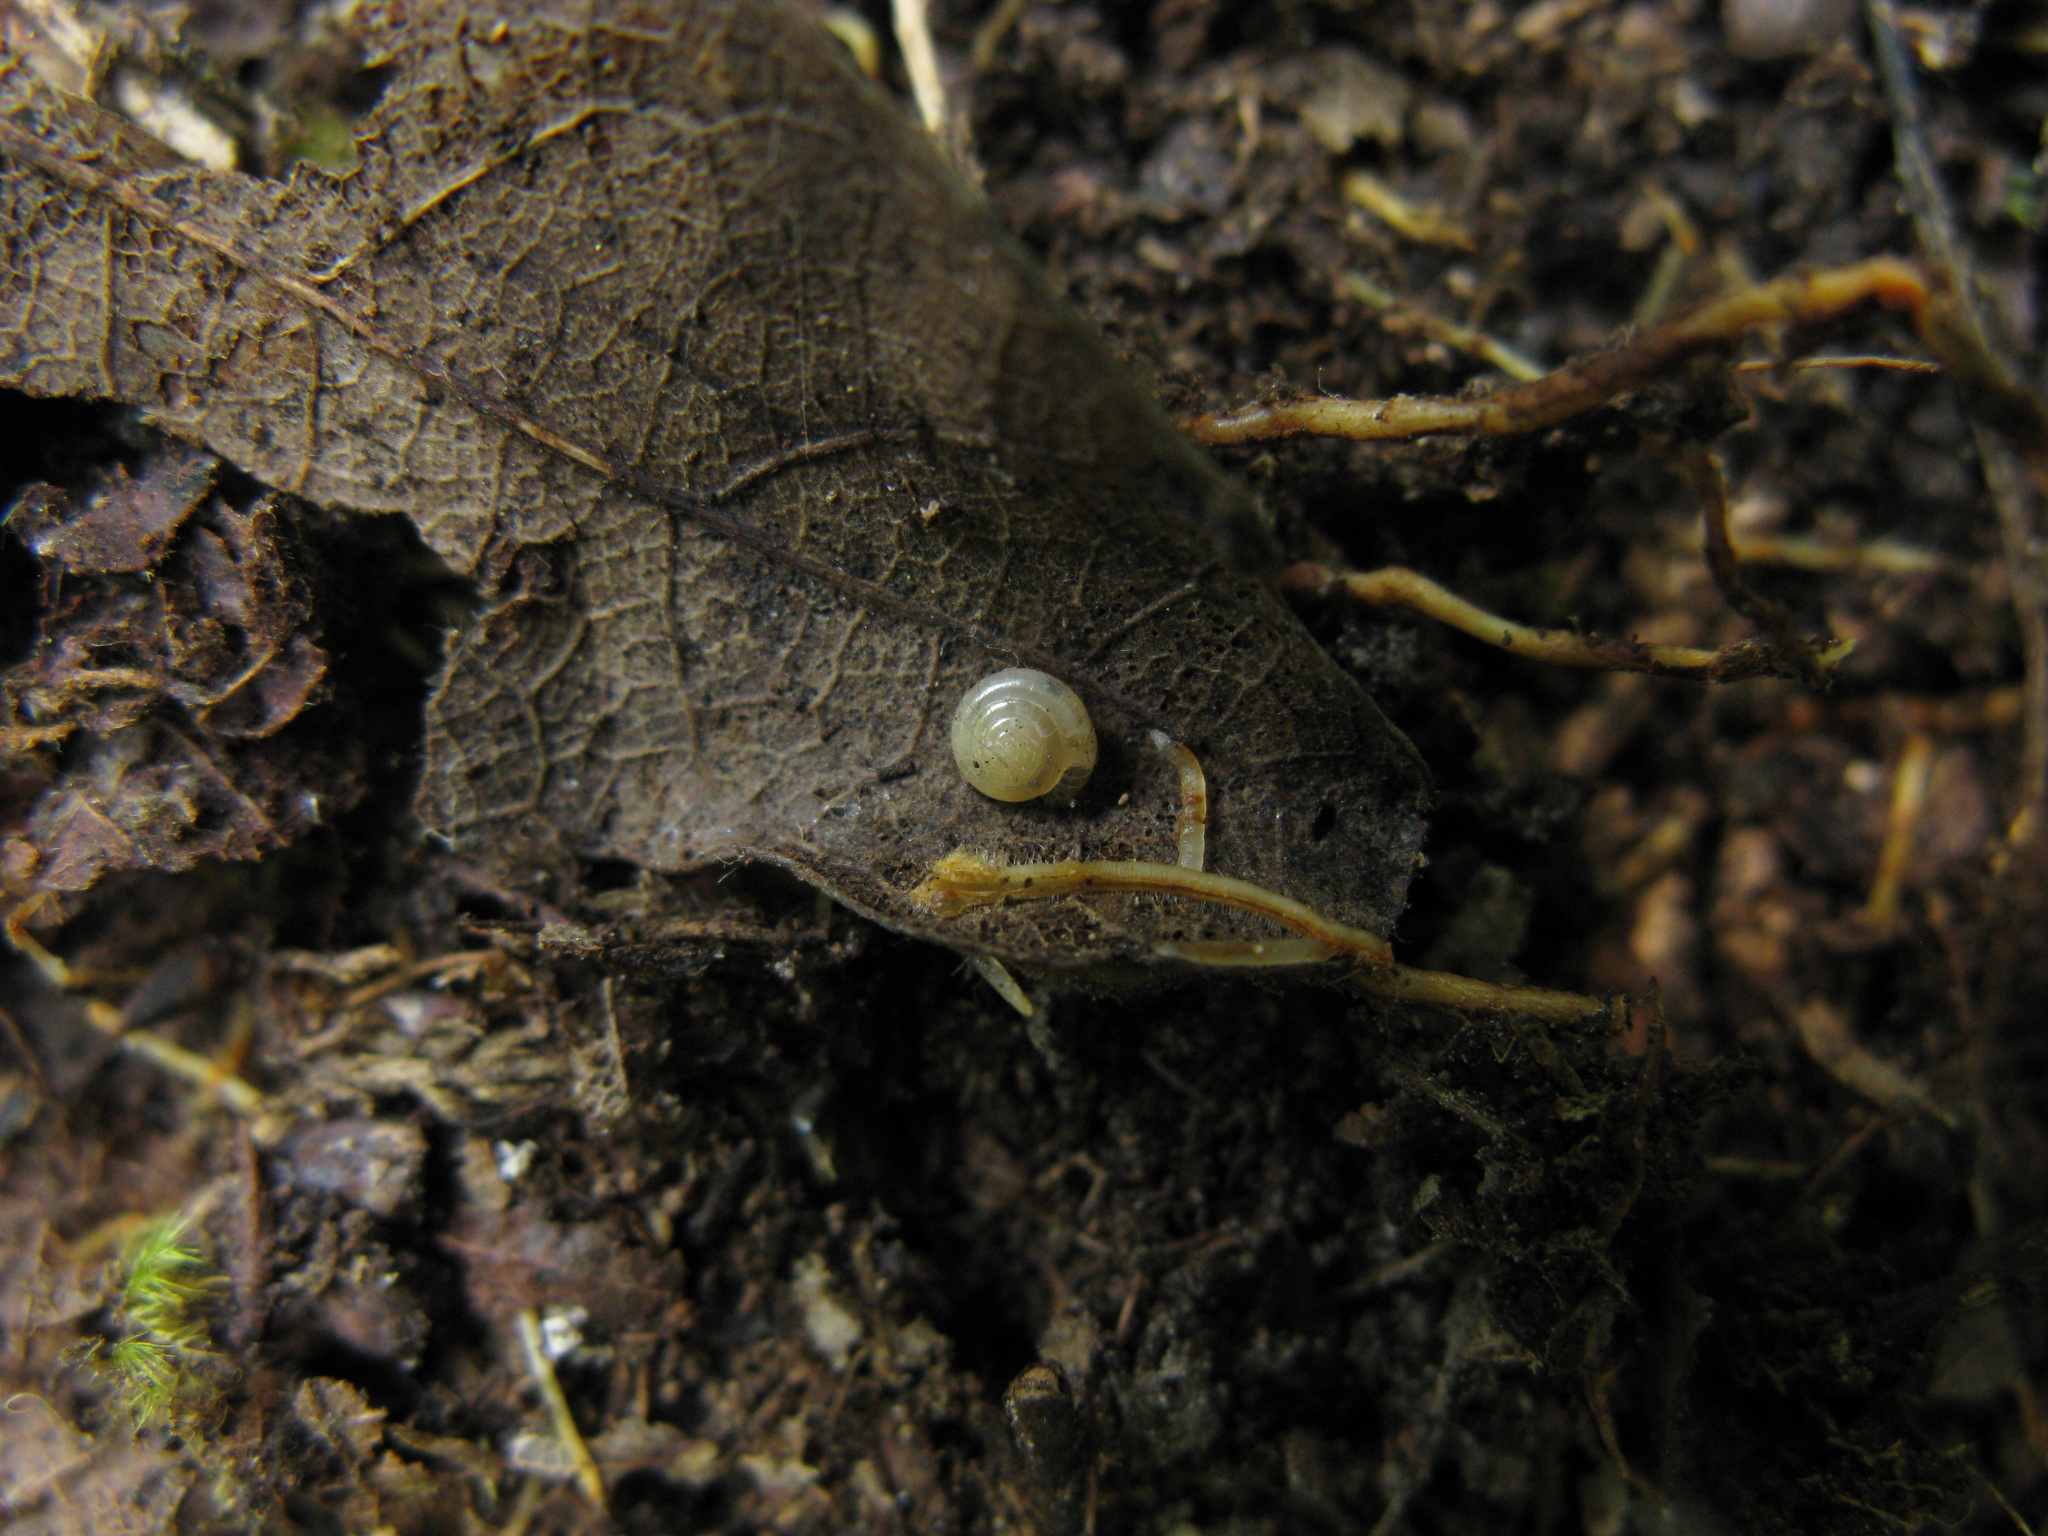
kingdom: Animalia
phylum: Mollusca
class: Gastropoda
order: Stylommatophora
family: Pristilomatidae
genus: Vitrea
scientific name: Vitrea contracta
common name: Milky crystal snail
